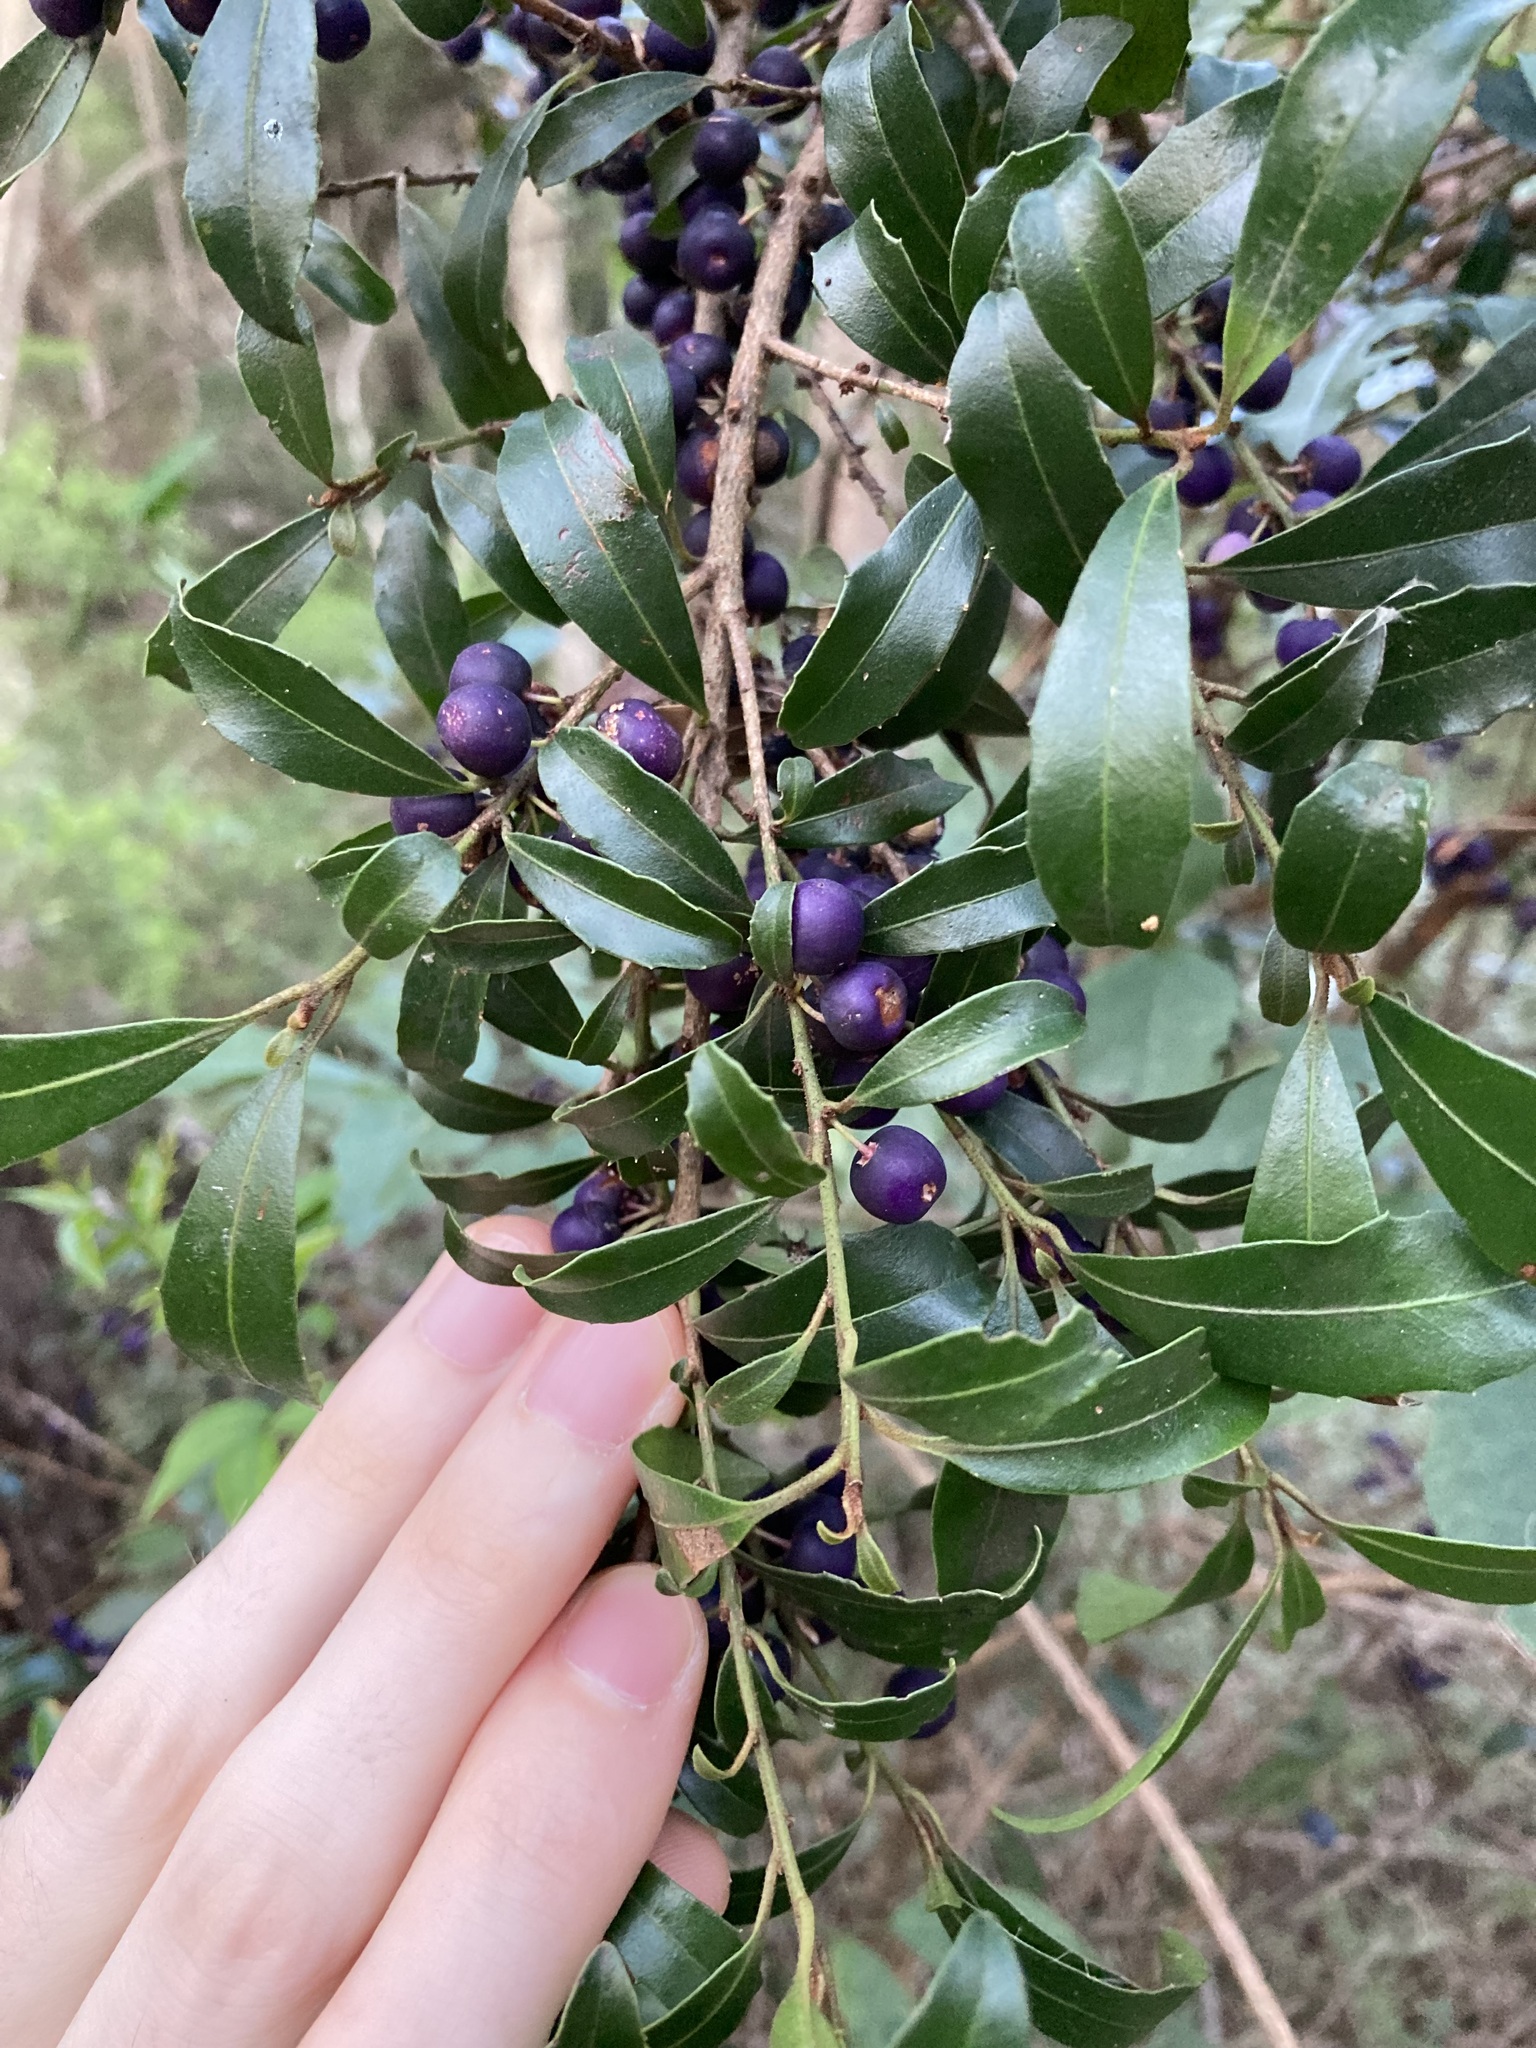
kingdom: Plantae
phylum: Tracheophyta
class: Magnoliopsida
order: Ericales
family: Primulaceae
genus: Myrsine
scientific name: Myrsine variabilis
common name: Brush muttonwood
